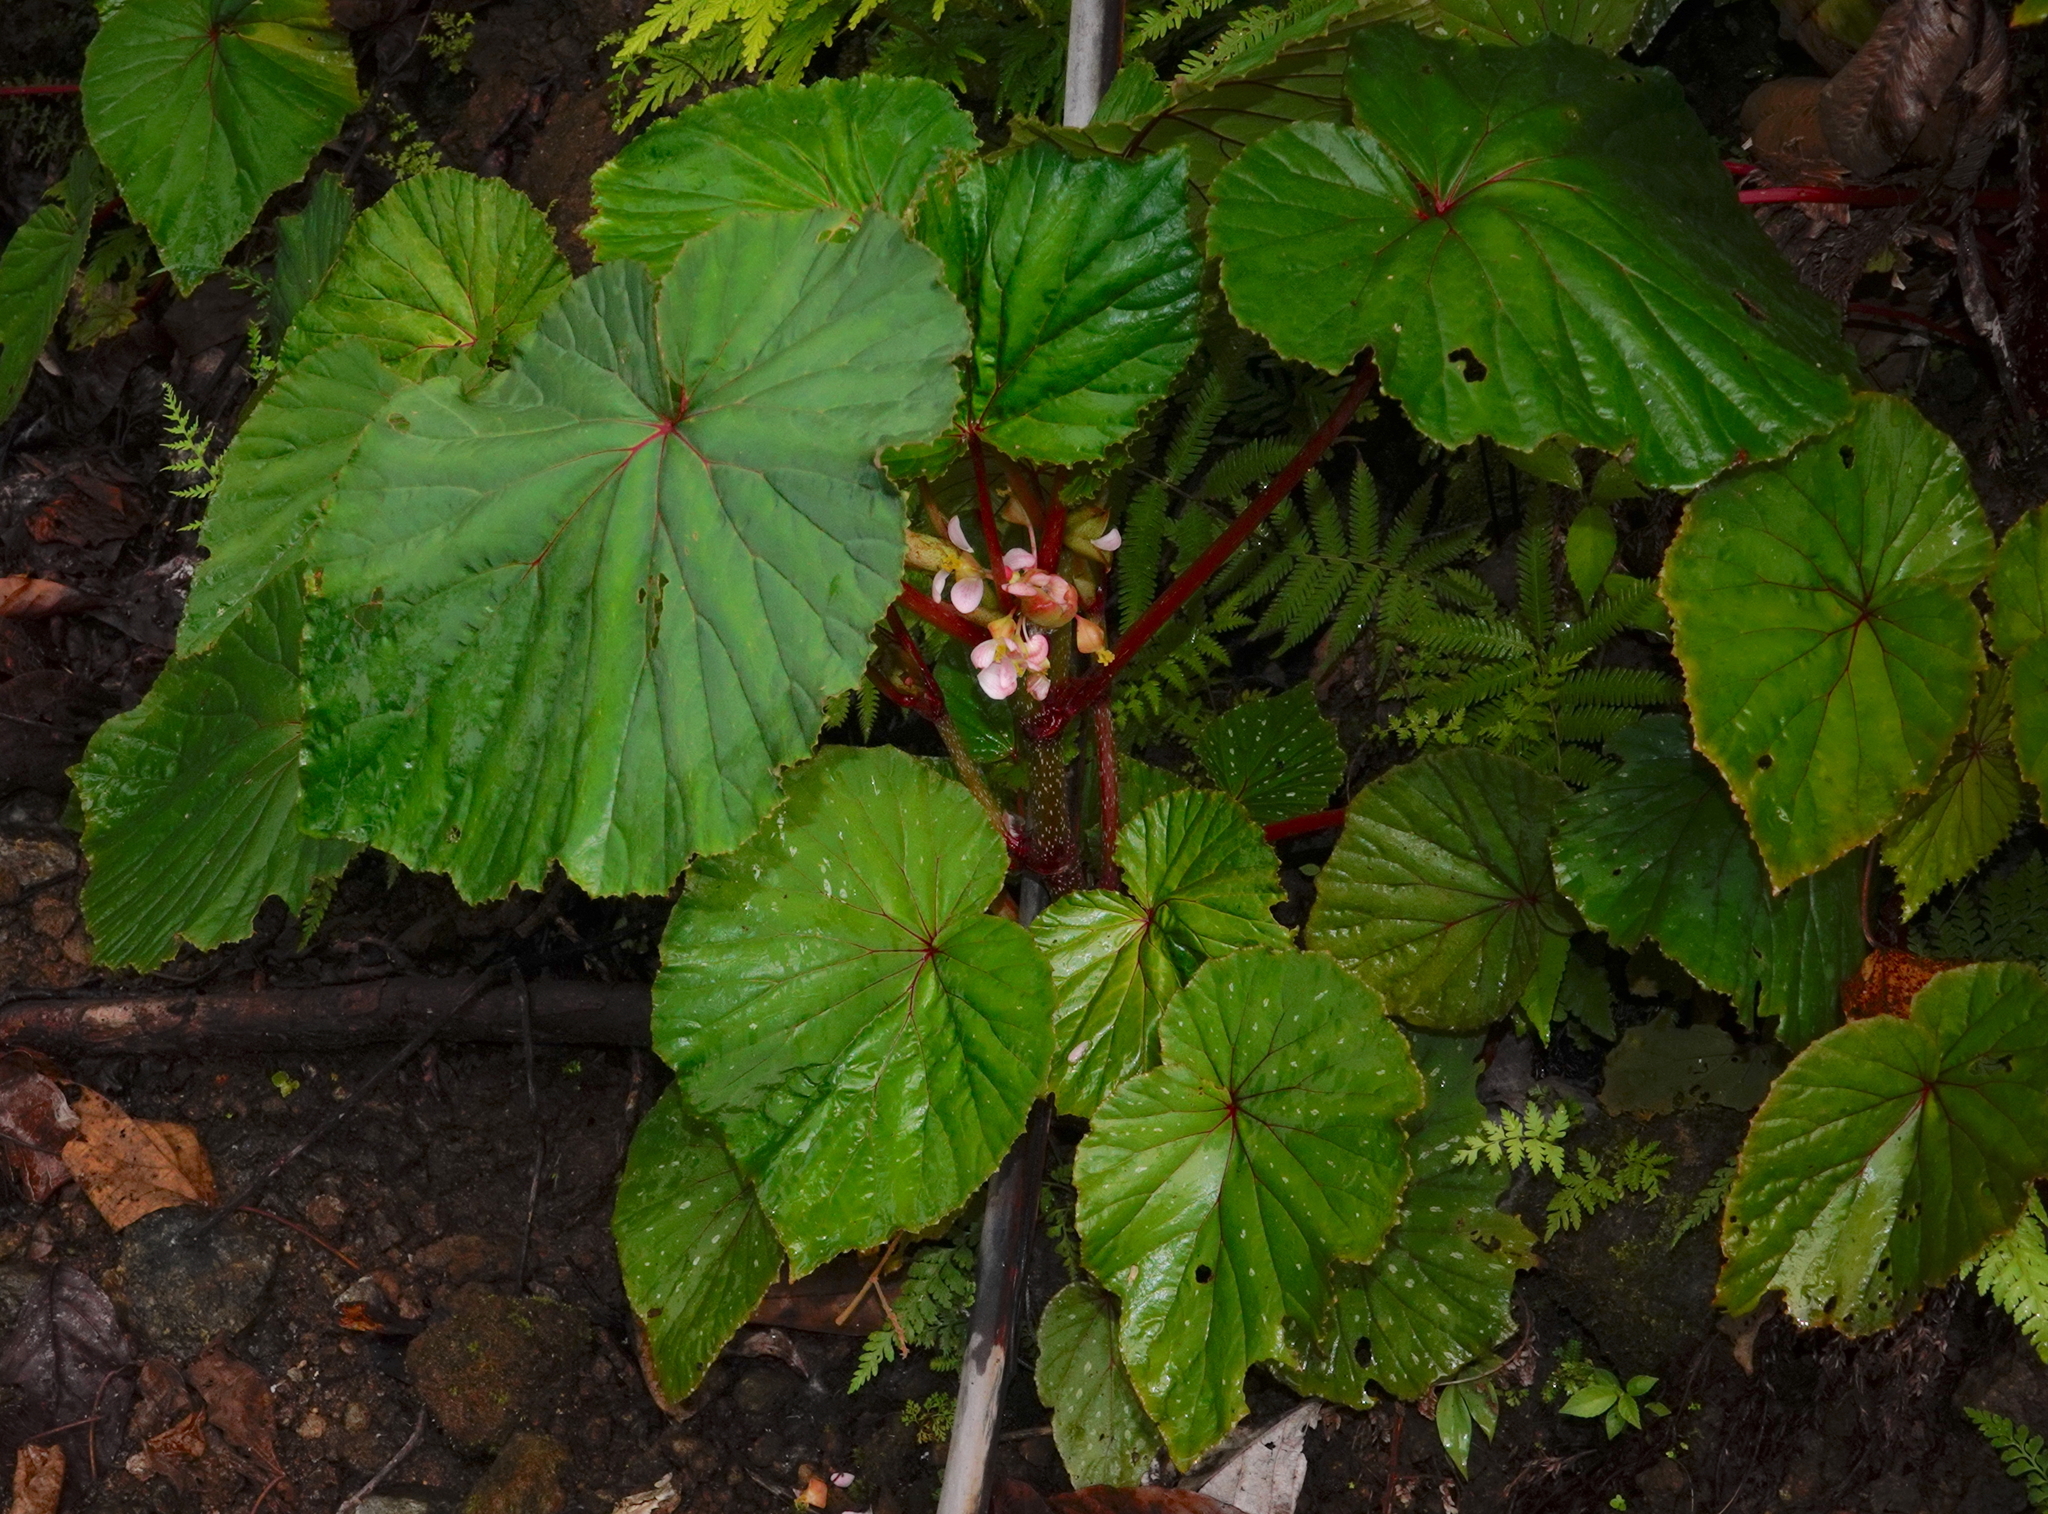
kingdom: Plantae
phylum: Tracheophyta
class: Magnoliopsida
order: Cucurbitales
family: Begoniaceae
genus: Begonia
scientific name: Begonia rieckei
